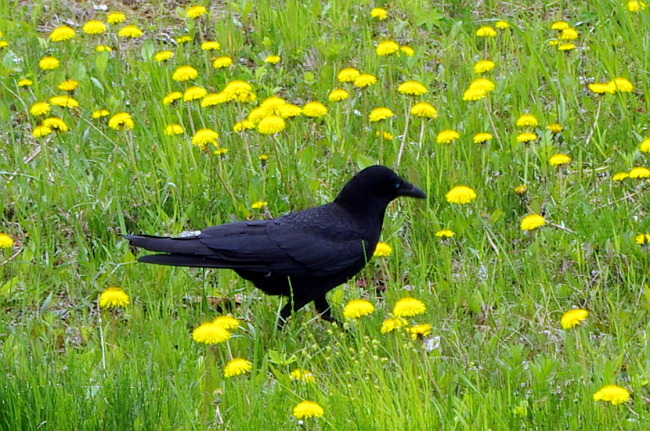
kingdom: Animalia
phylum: Chordata
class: Aves
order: Passeriformes
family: Corvidae
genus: Corvus
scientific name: Corvus corone
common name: Carrion crow
